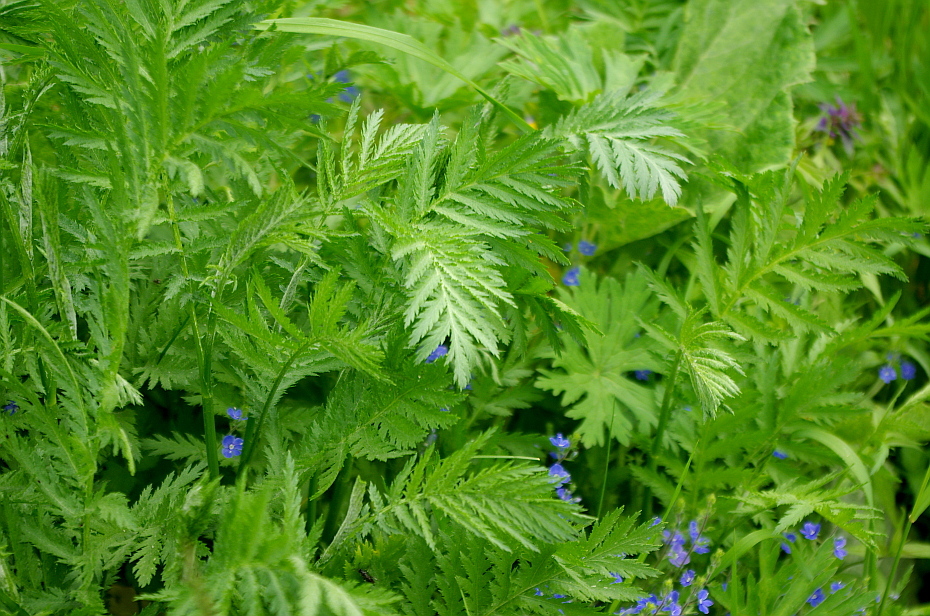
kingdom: Plantae
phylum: Tracheophyta
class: Magnoliopsida
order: Asterales
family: Asteraceae
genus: Tanacetum
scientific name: Tanacetum vulgare
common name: Common tansy
